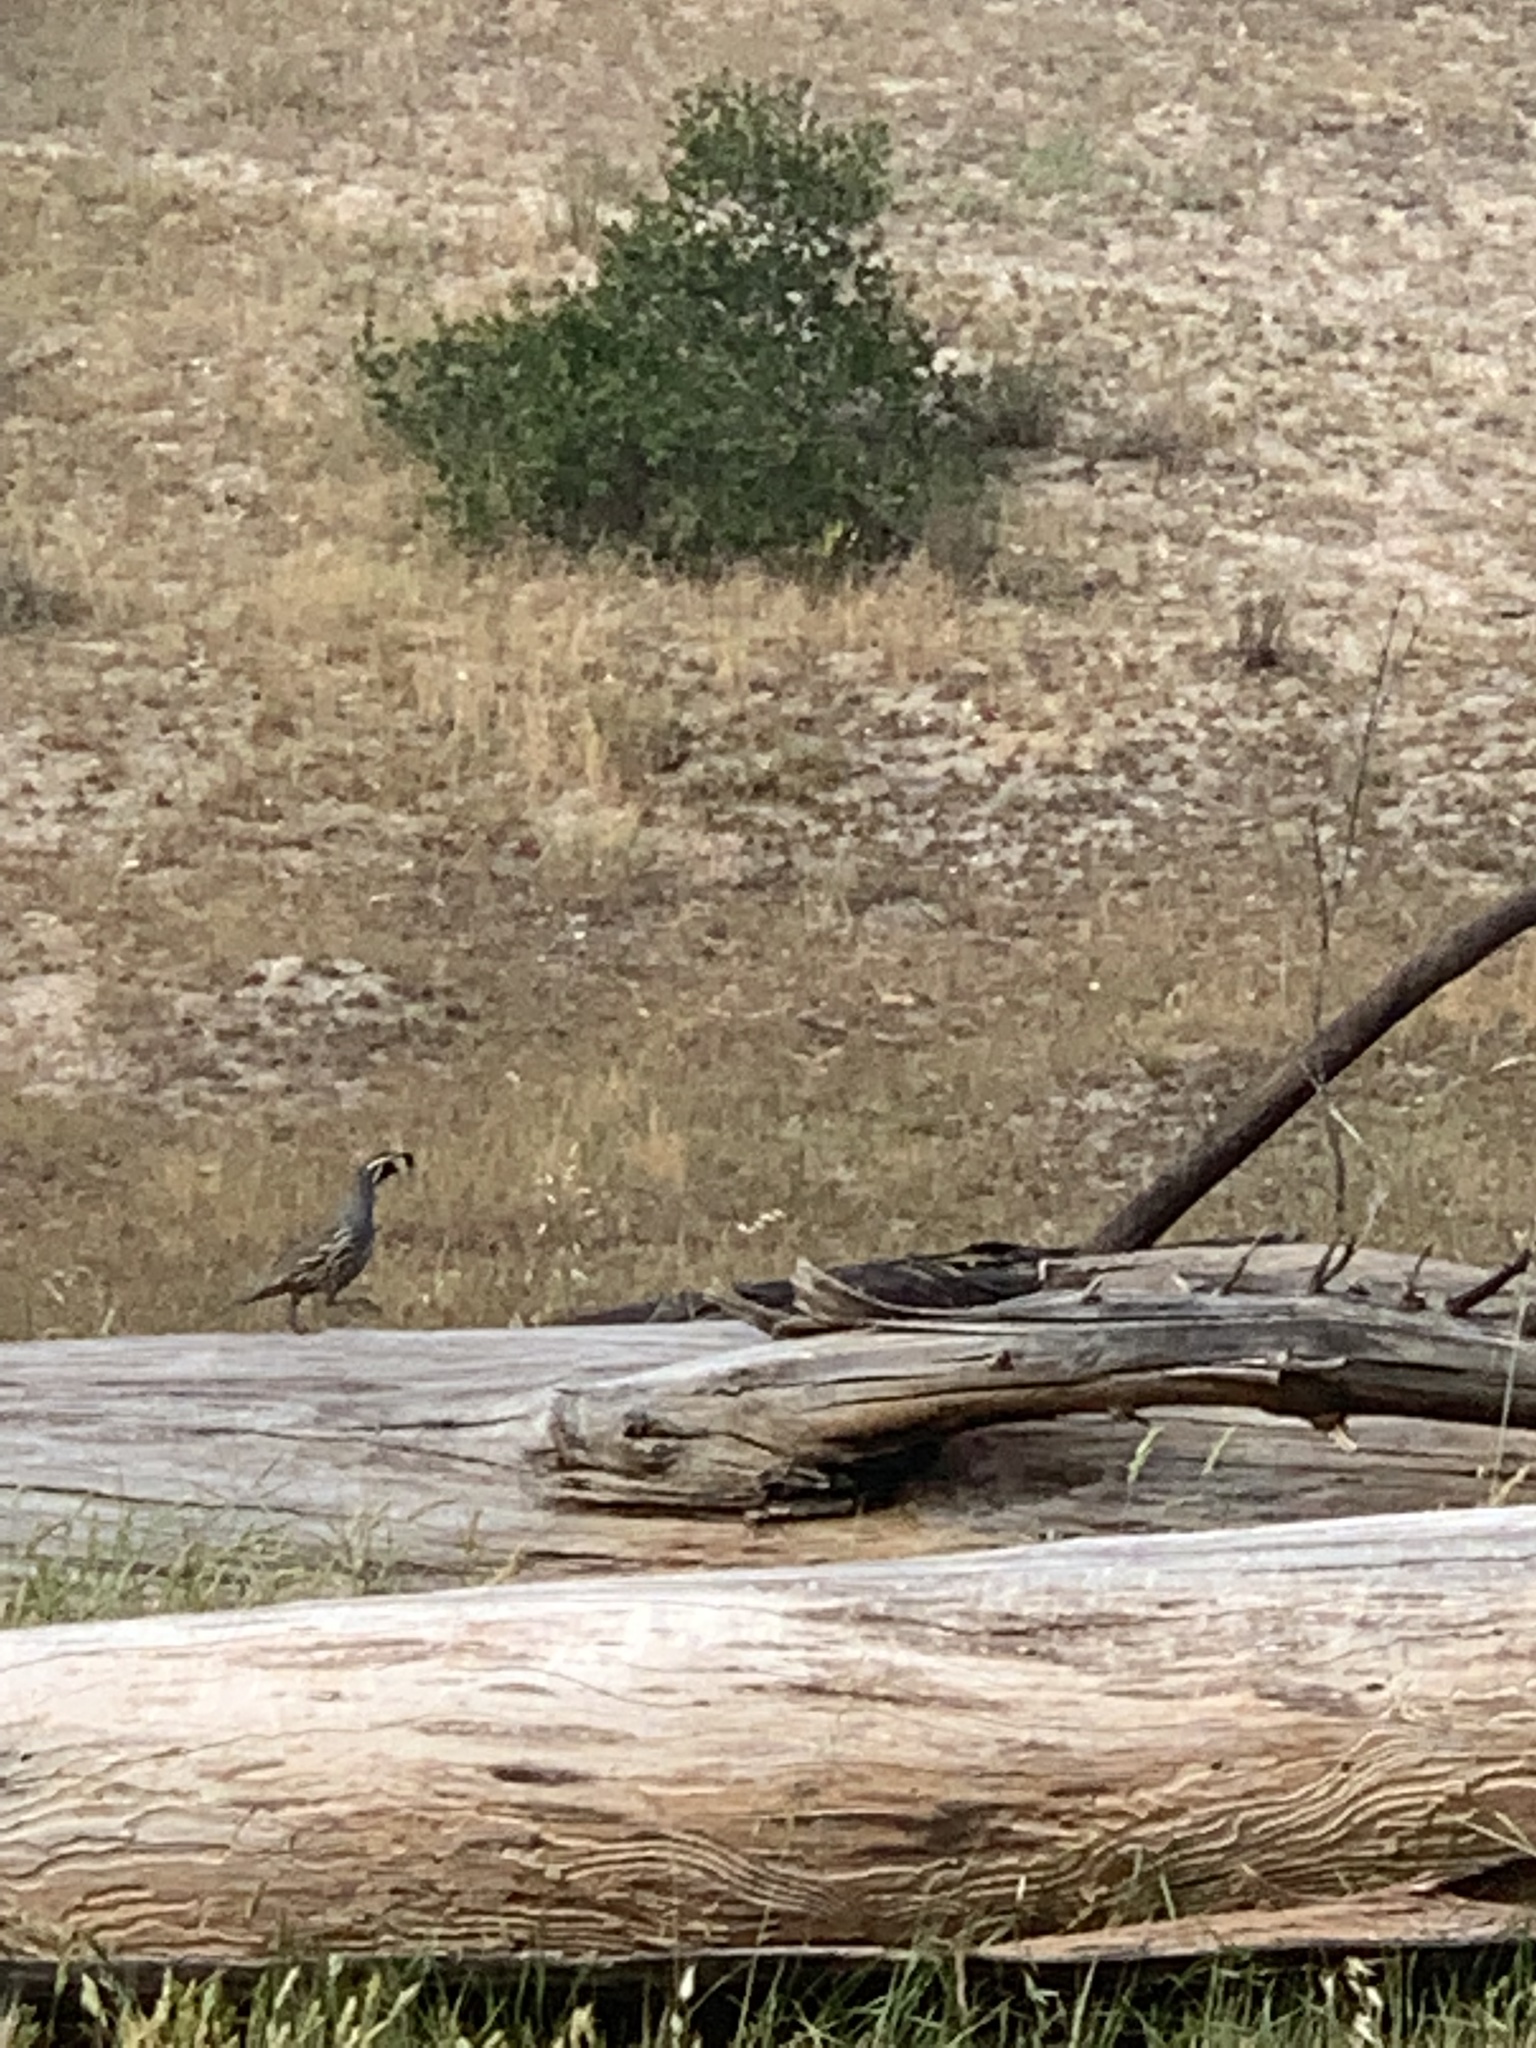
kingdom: Animalia
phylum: Chordata
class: Aves
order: Galliformes
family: Odontophoridae
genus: Callipepla
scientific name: Callipepla californica
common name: California quail
